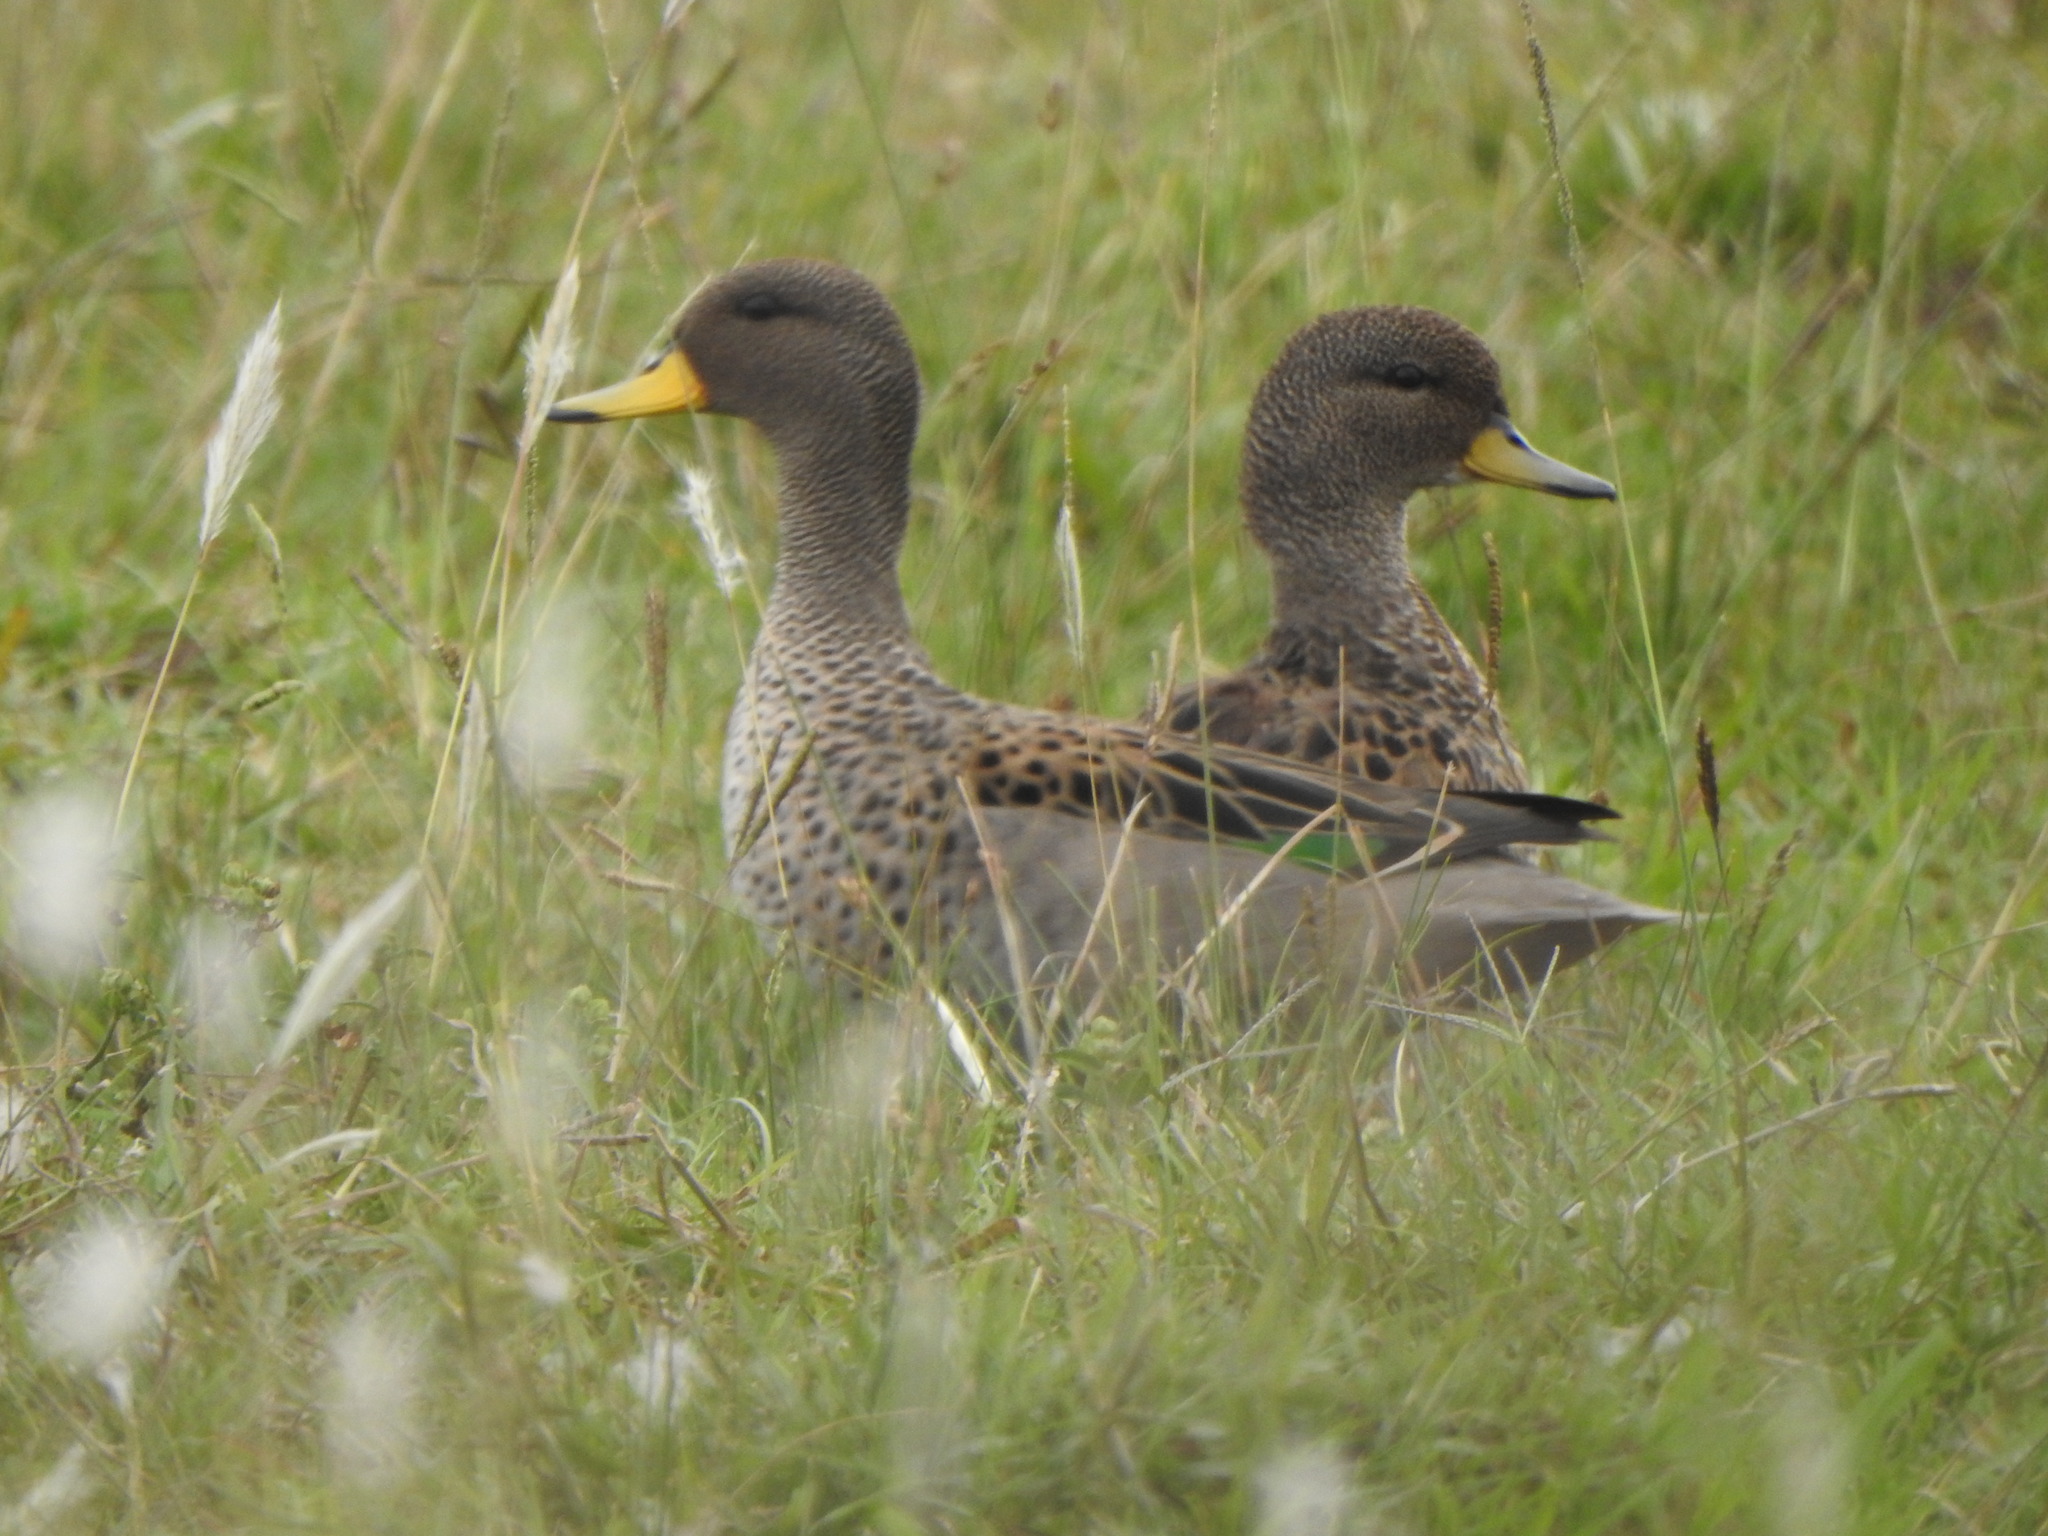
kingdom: Animalia
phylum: Chordata
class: Aves
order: Anseriformes
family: Anatidae
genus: Anas
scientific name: Anas flavirostris
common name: Yellow-billed teal
